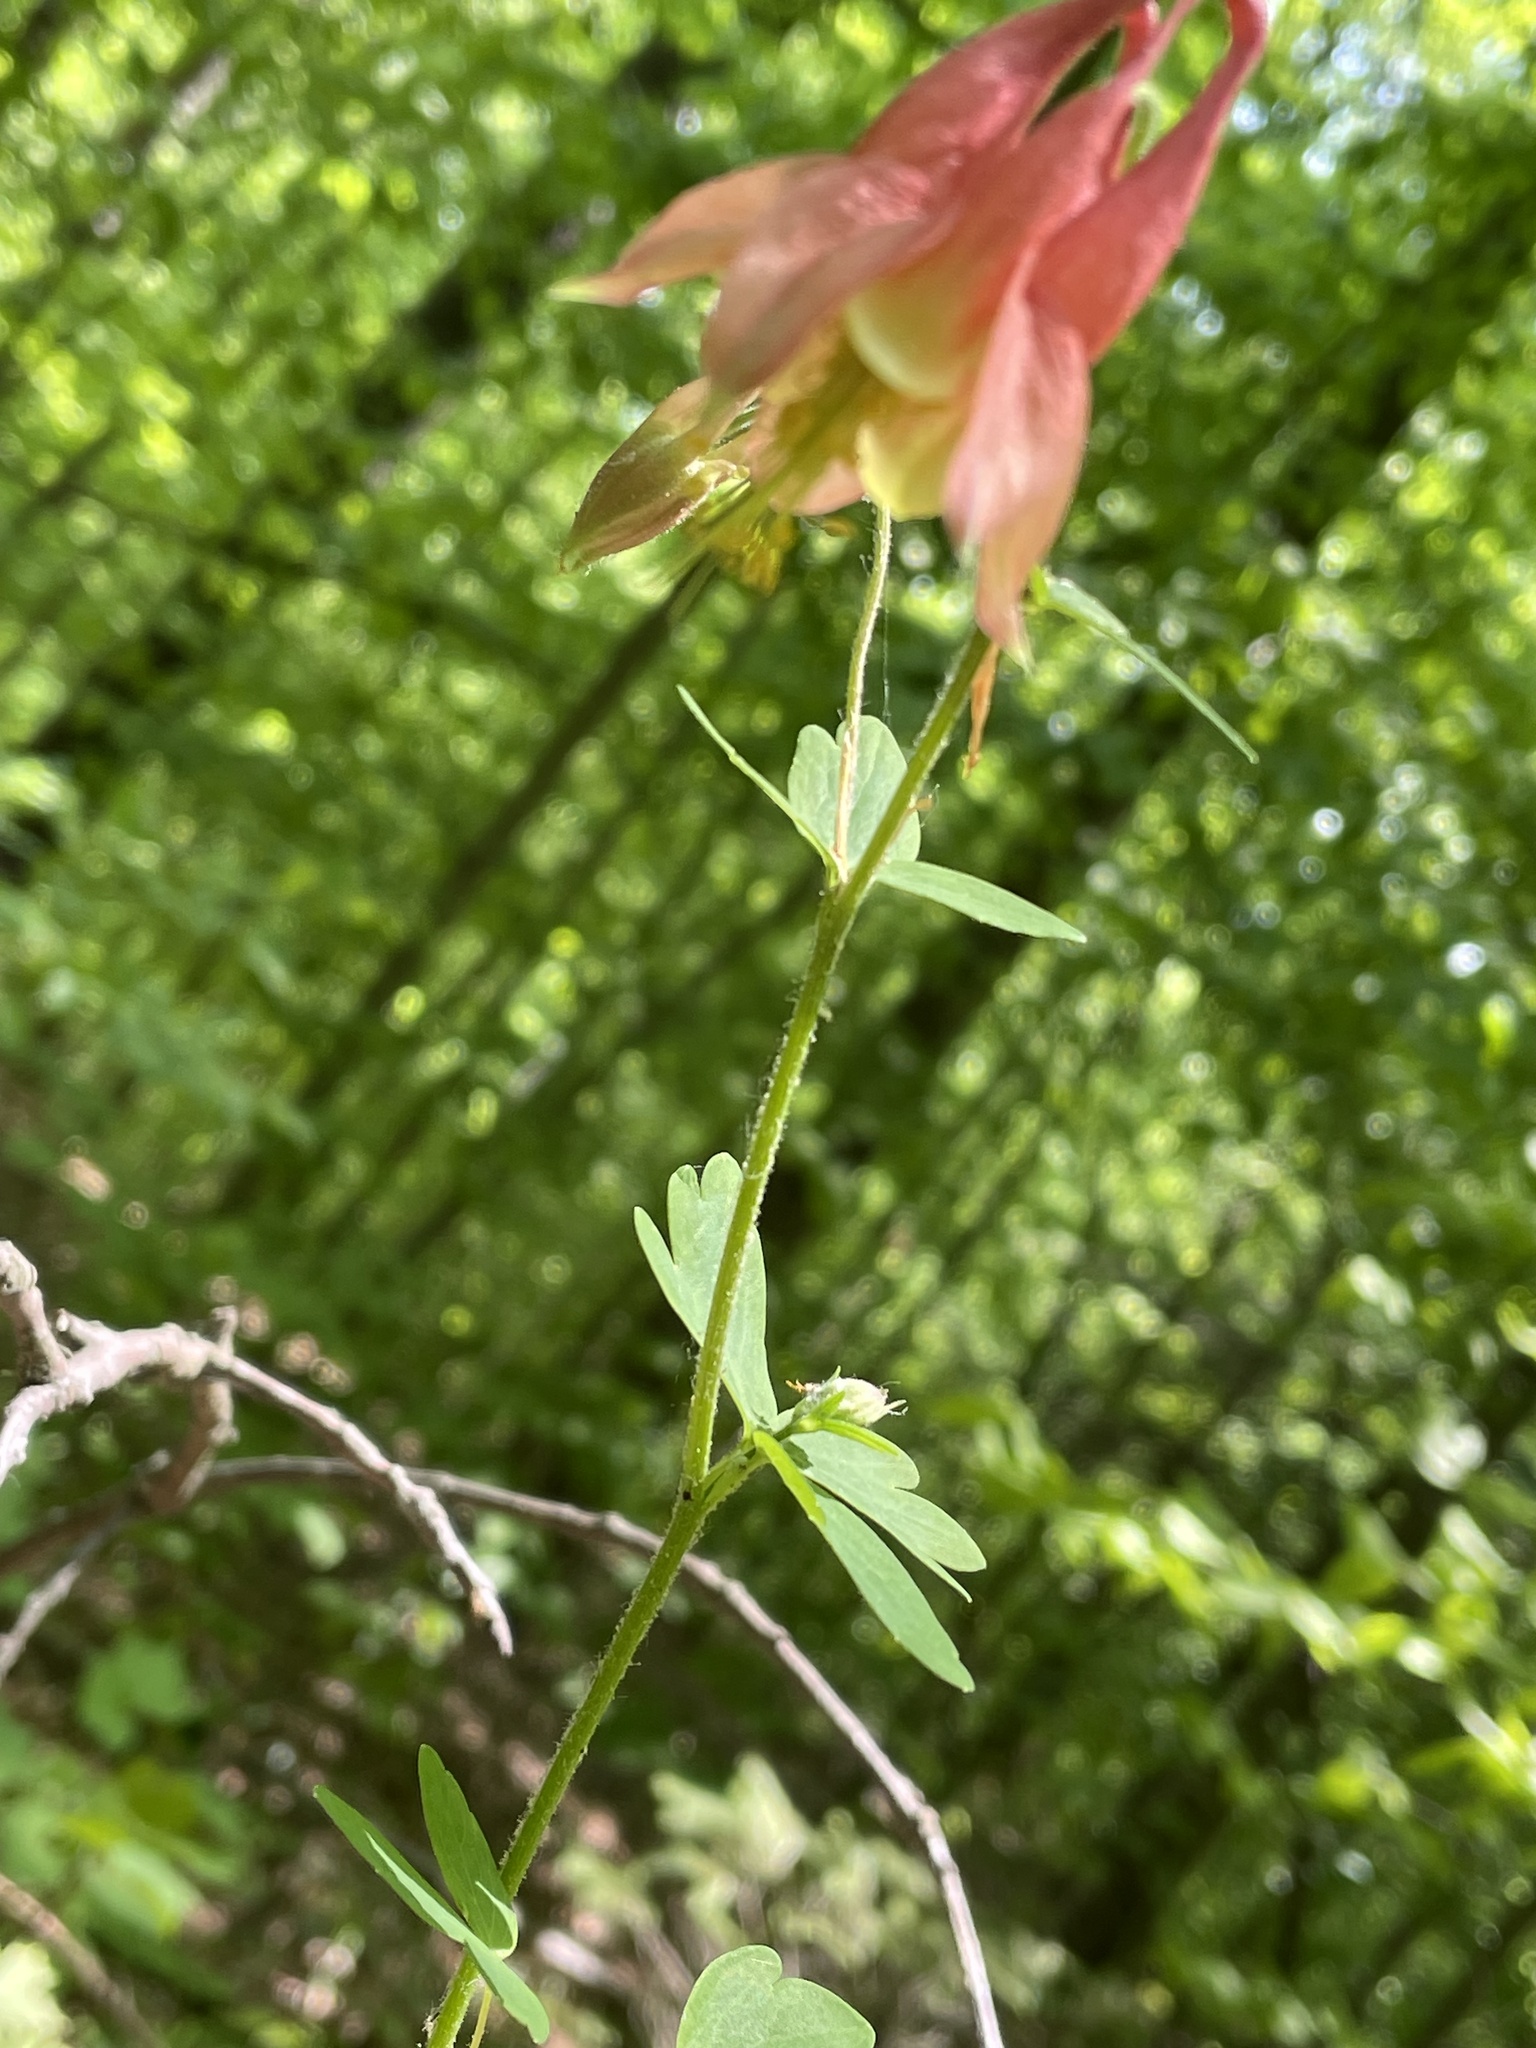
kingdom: Plantae
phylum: Tracheophyta
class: Magnoliopsida
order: Ranunculales
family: Ranunculaceae
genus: Aquilegia
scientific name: Aquilegia canadensis
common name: American columbine
